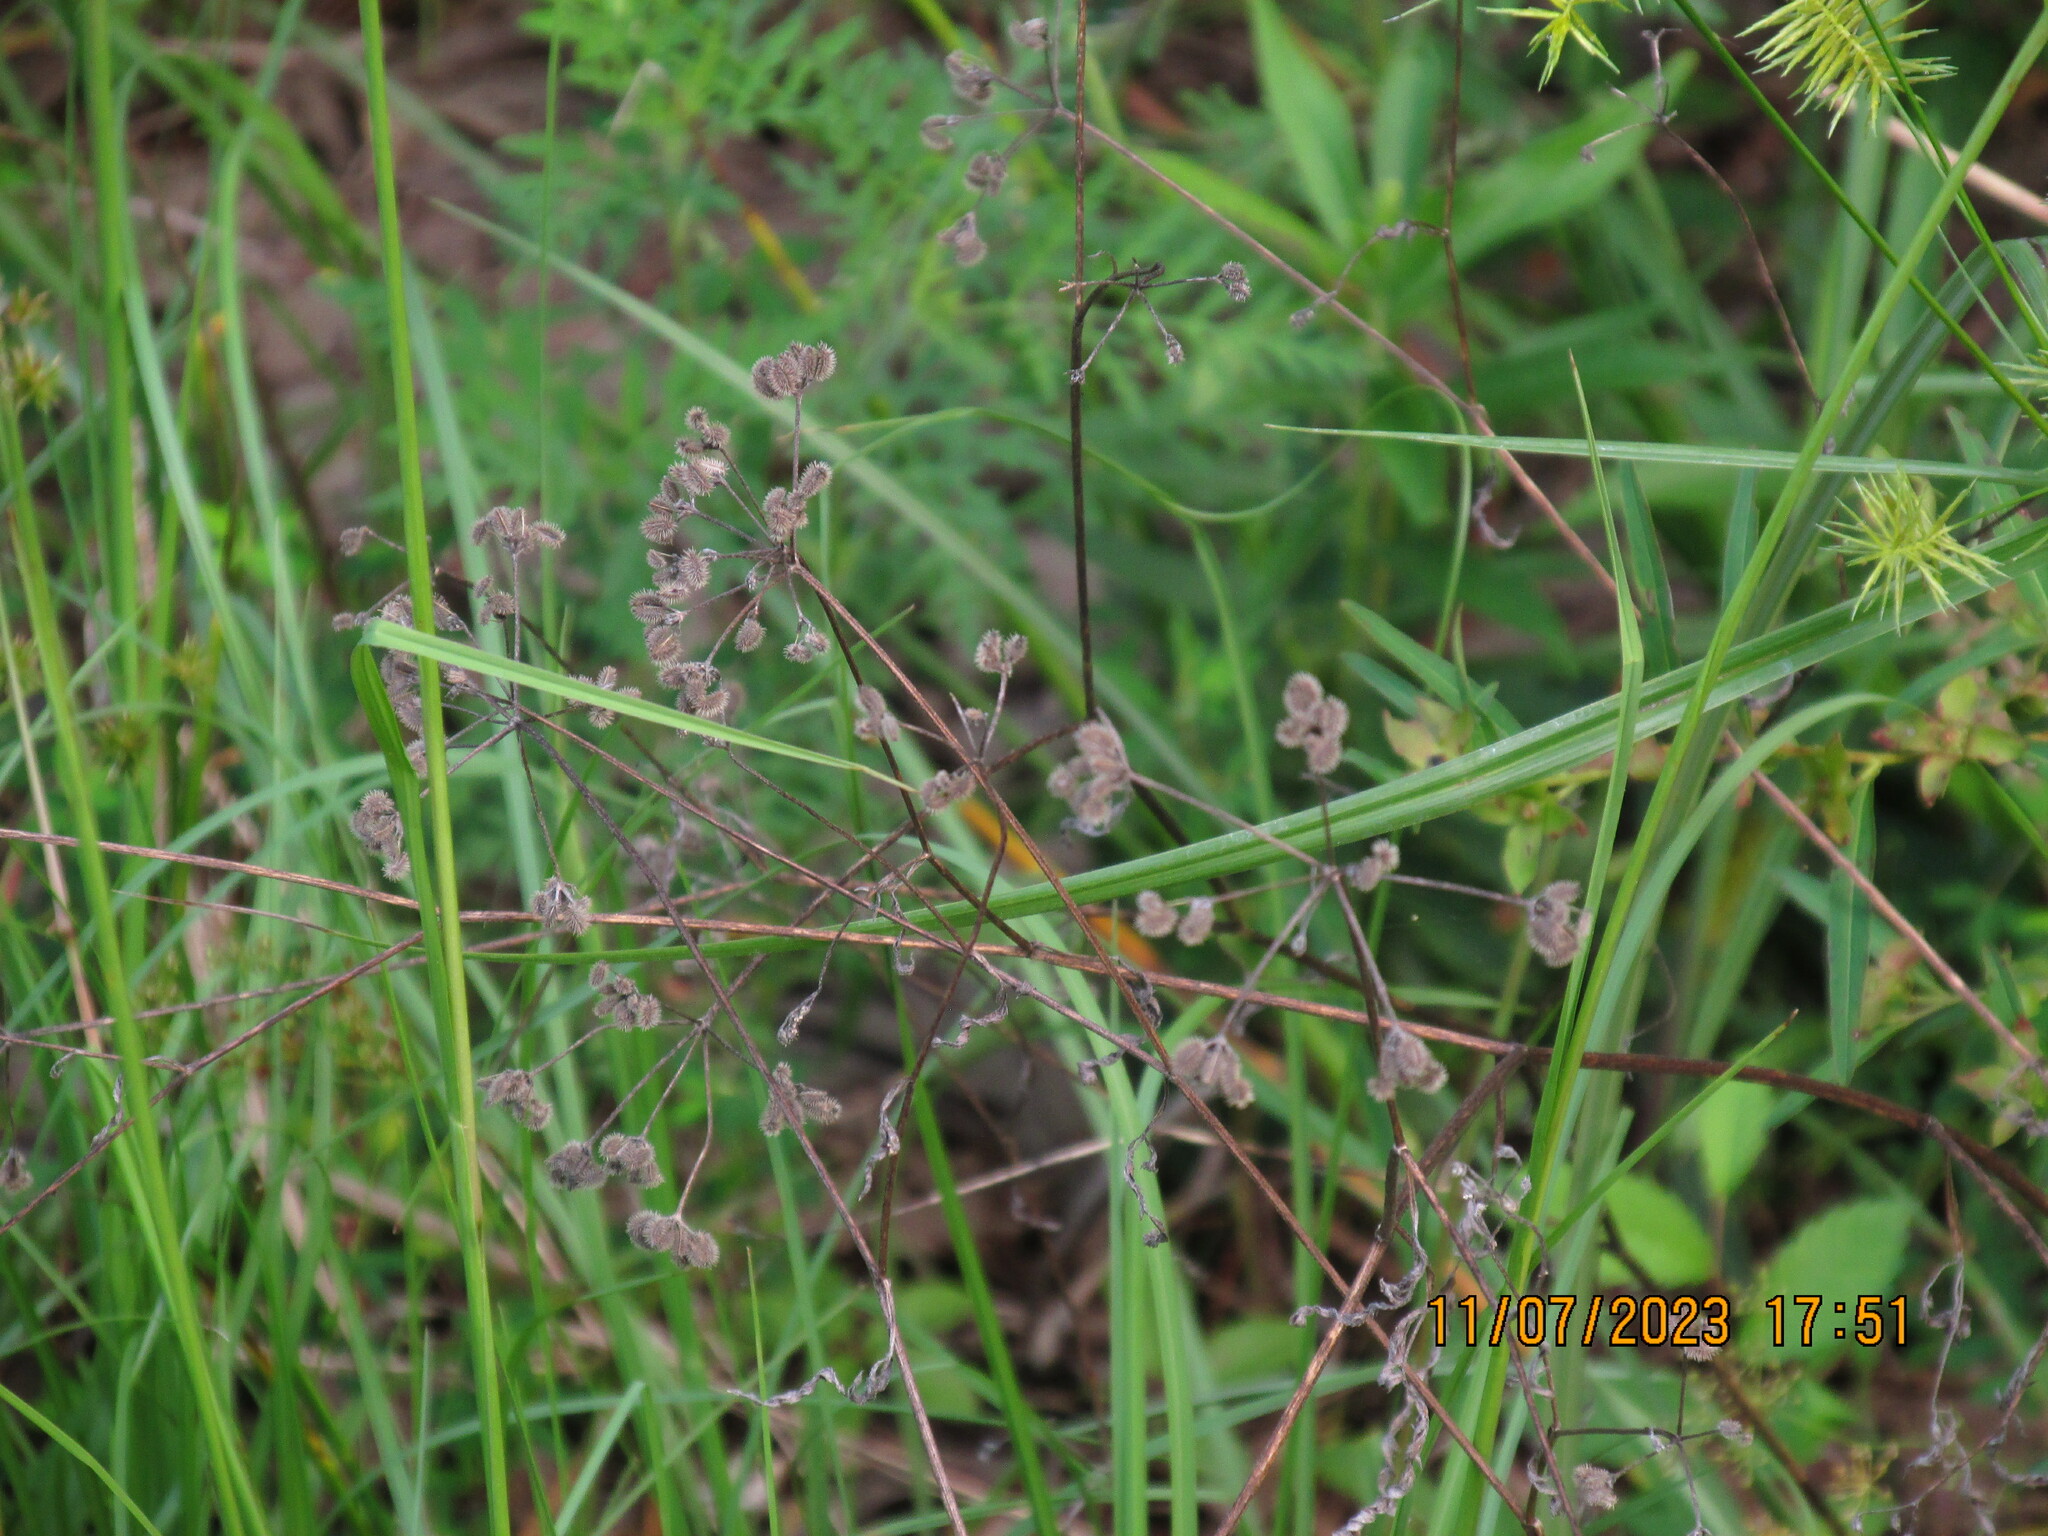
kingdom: Plantae
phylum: Tracheophyta
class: Magnoliopsida
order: Apiales
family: Apiaceae
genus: Torilis
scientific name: Torilis arvensis
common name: Spreading hedge-parsley
